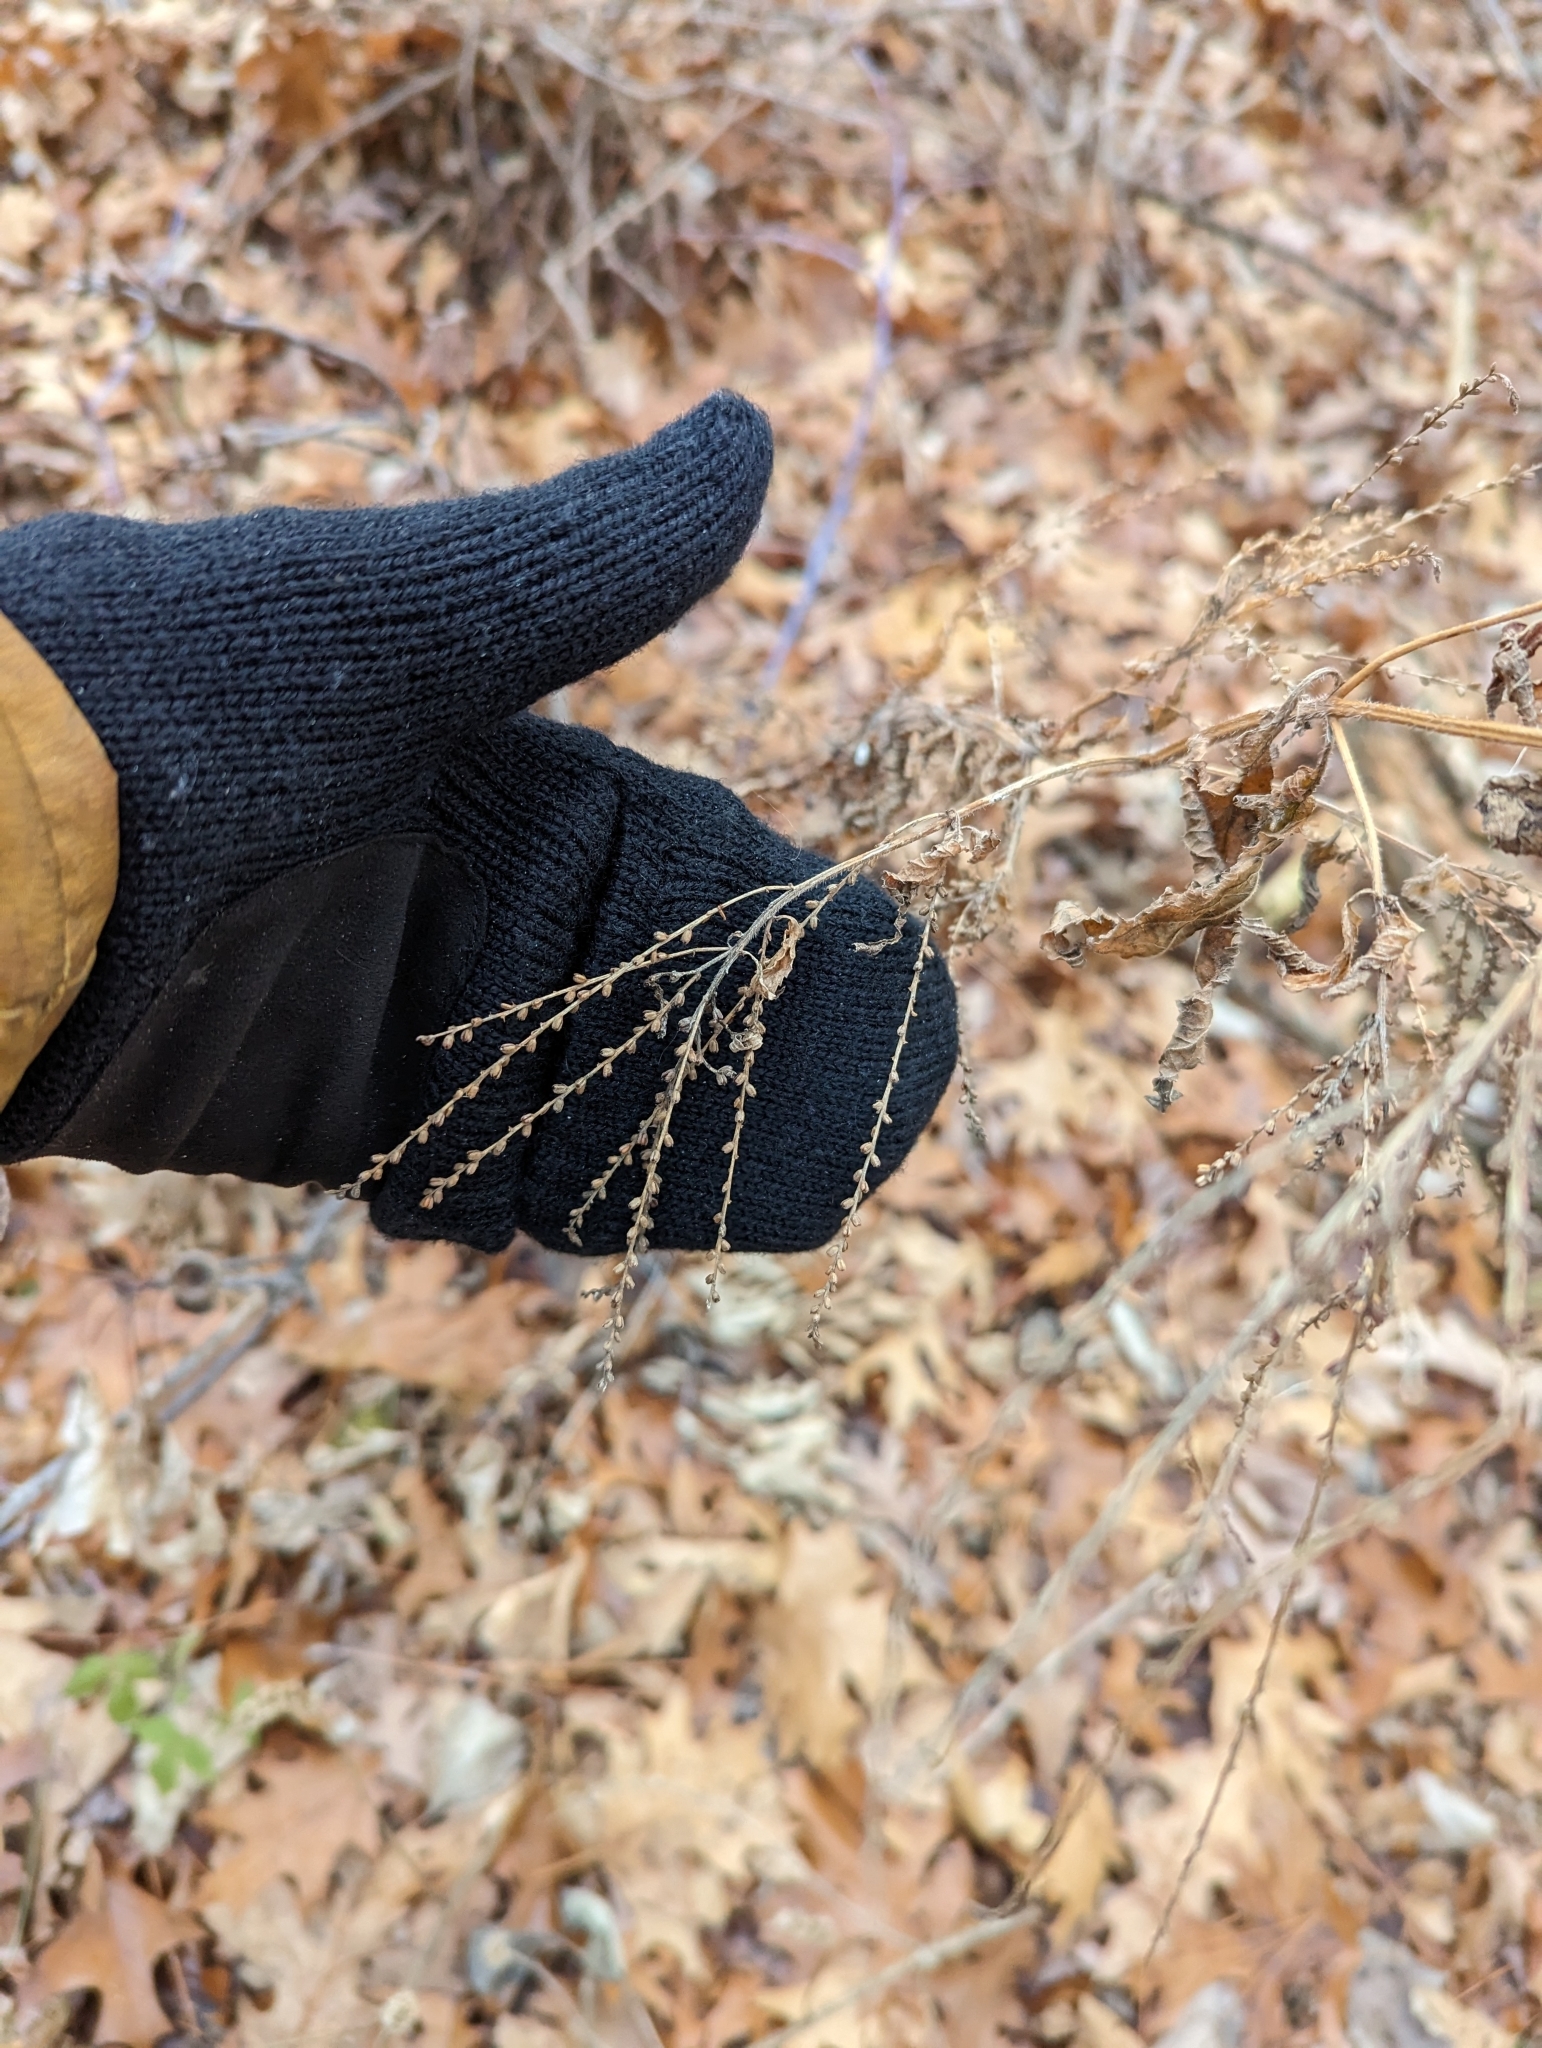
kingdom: Plantae
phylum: Tracheophyta
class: Magnoliopsida
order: Lamiales
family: Verbenaceae
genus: Verbena
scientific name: Verbena urticifolia
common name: Nettle-leaved vervain
